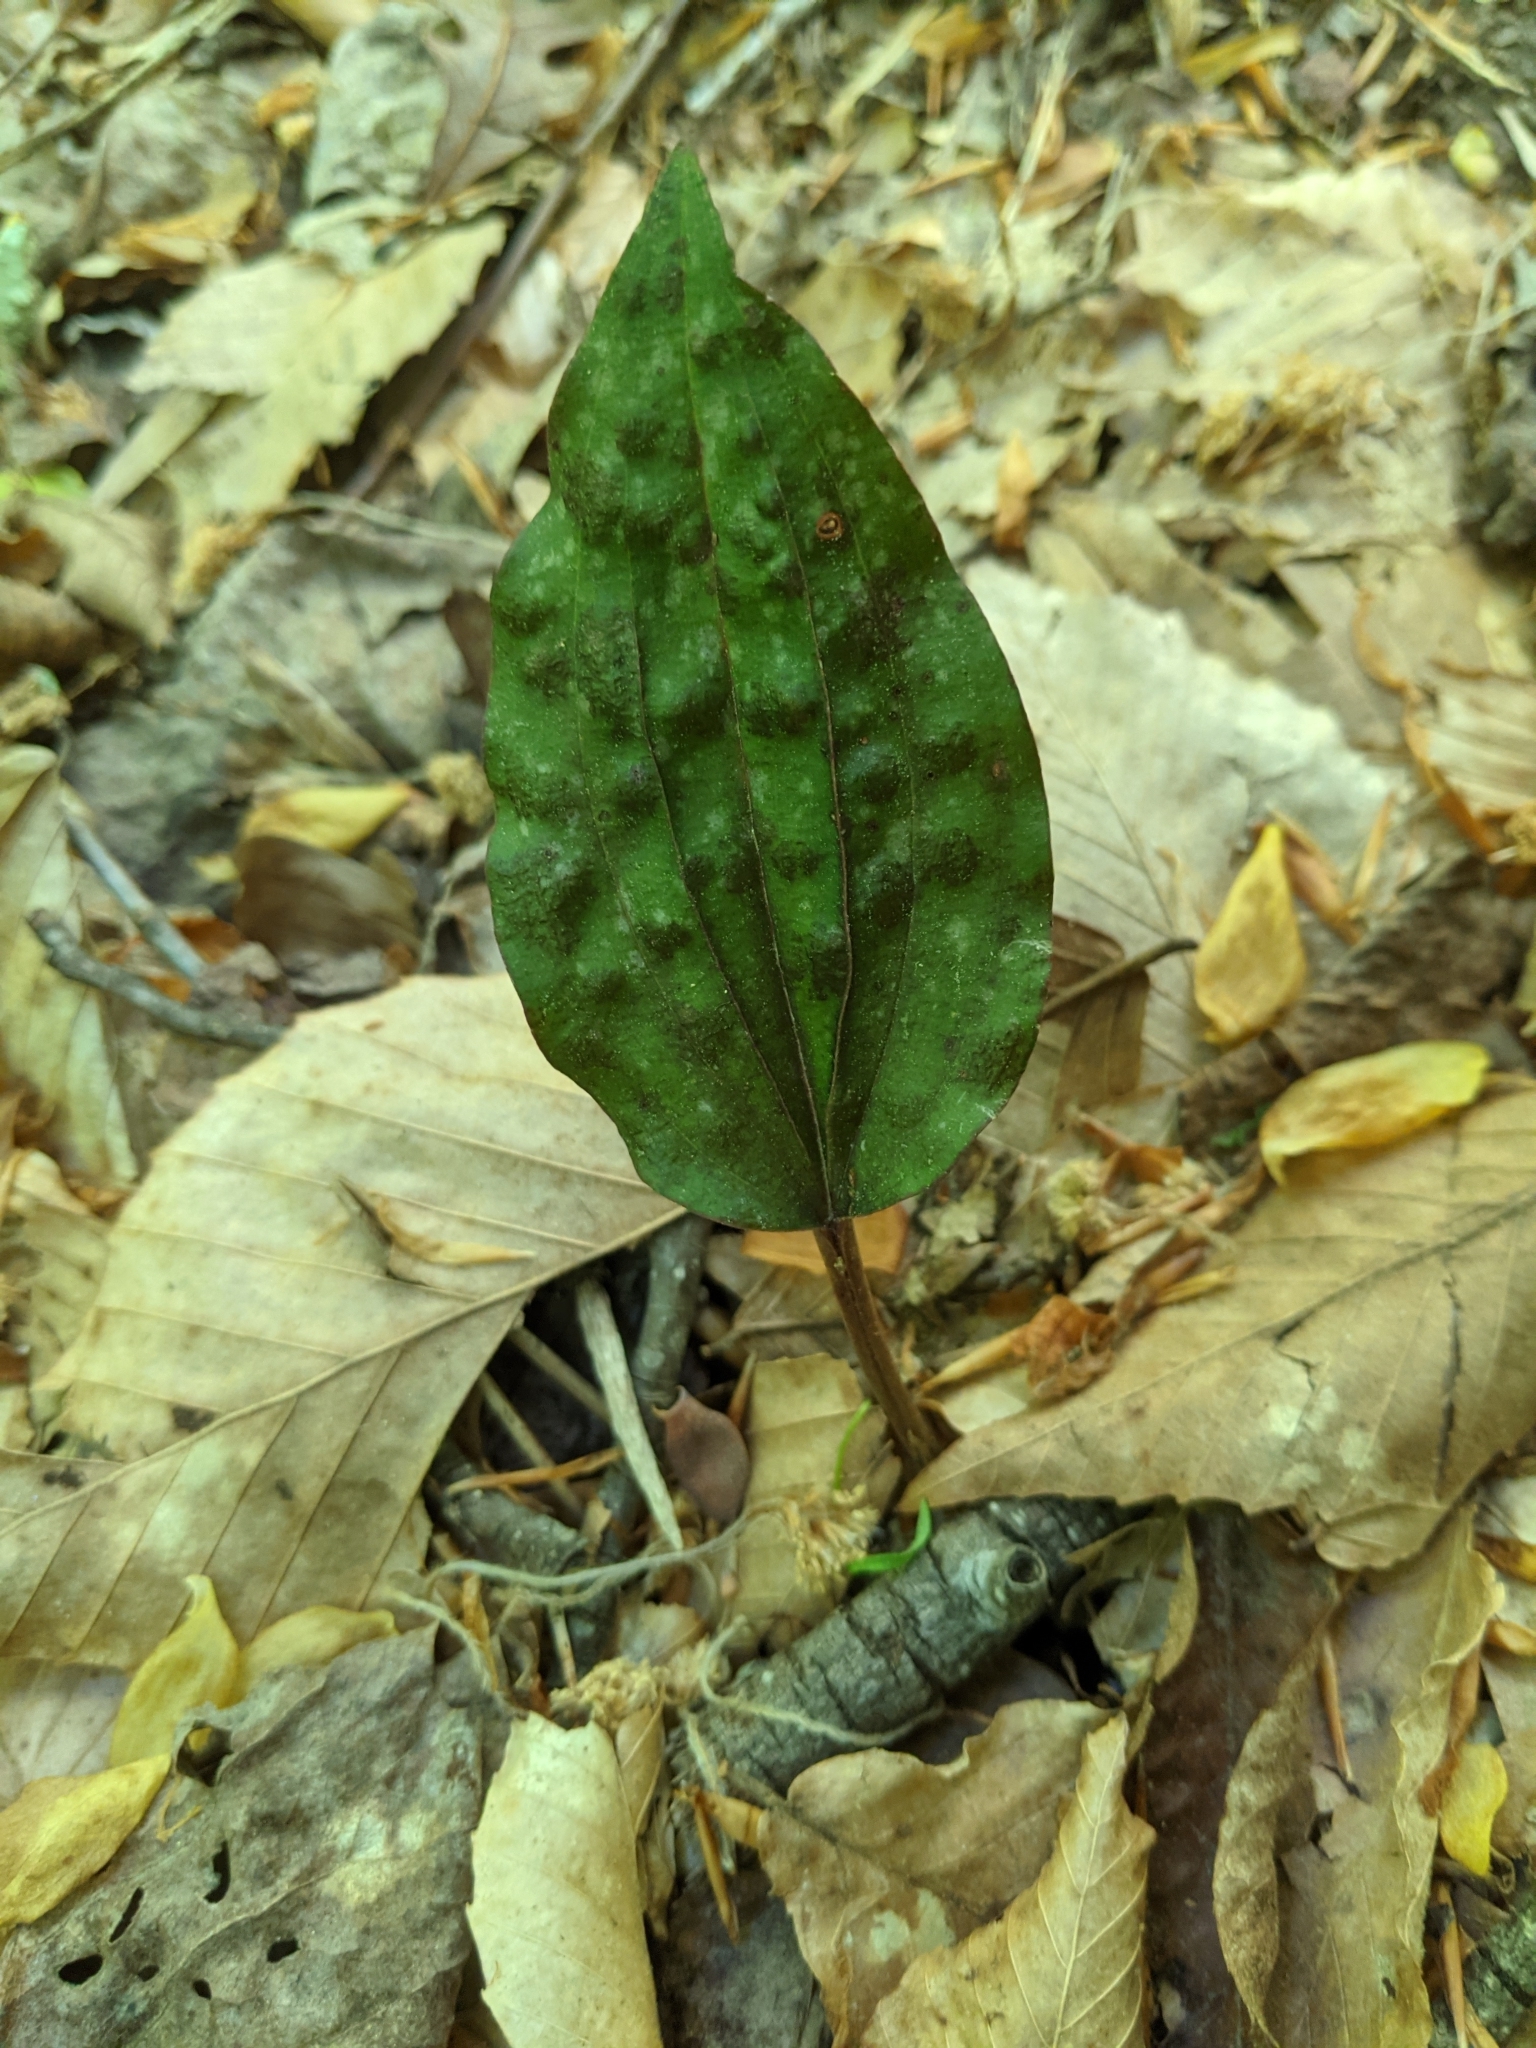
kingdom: Plantae
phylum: Tracheophyta
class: Liliopsida
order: Asparagales
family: Orchidaceae
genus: Tipularia
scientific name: Tipularia discolor
